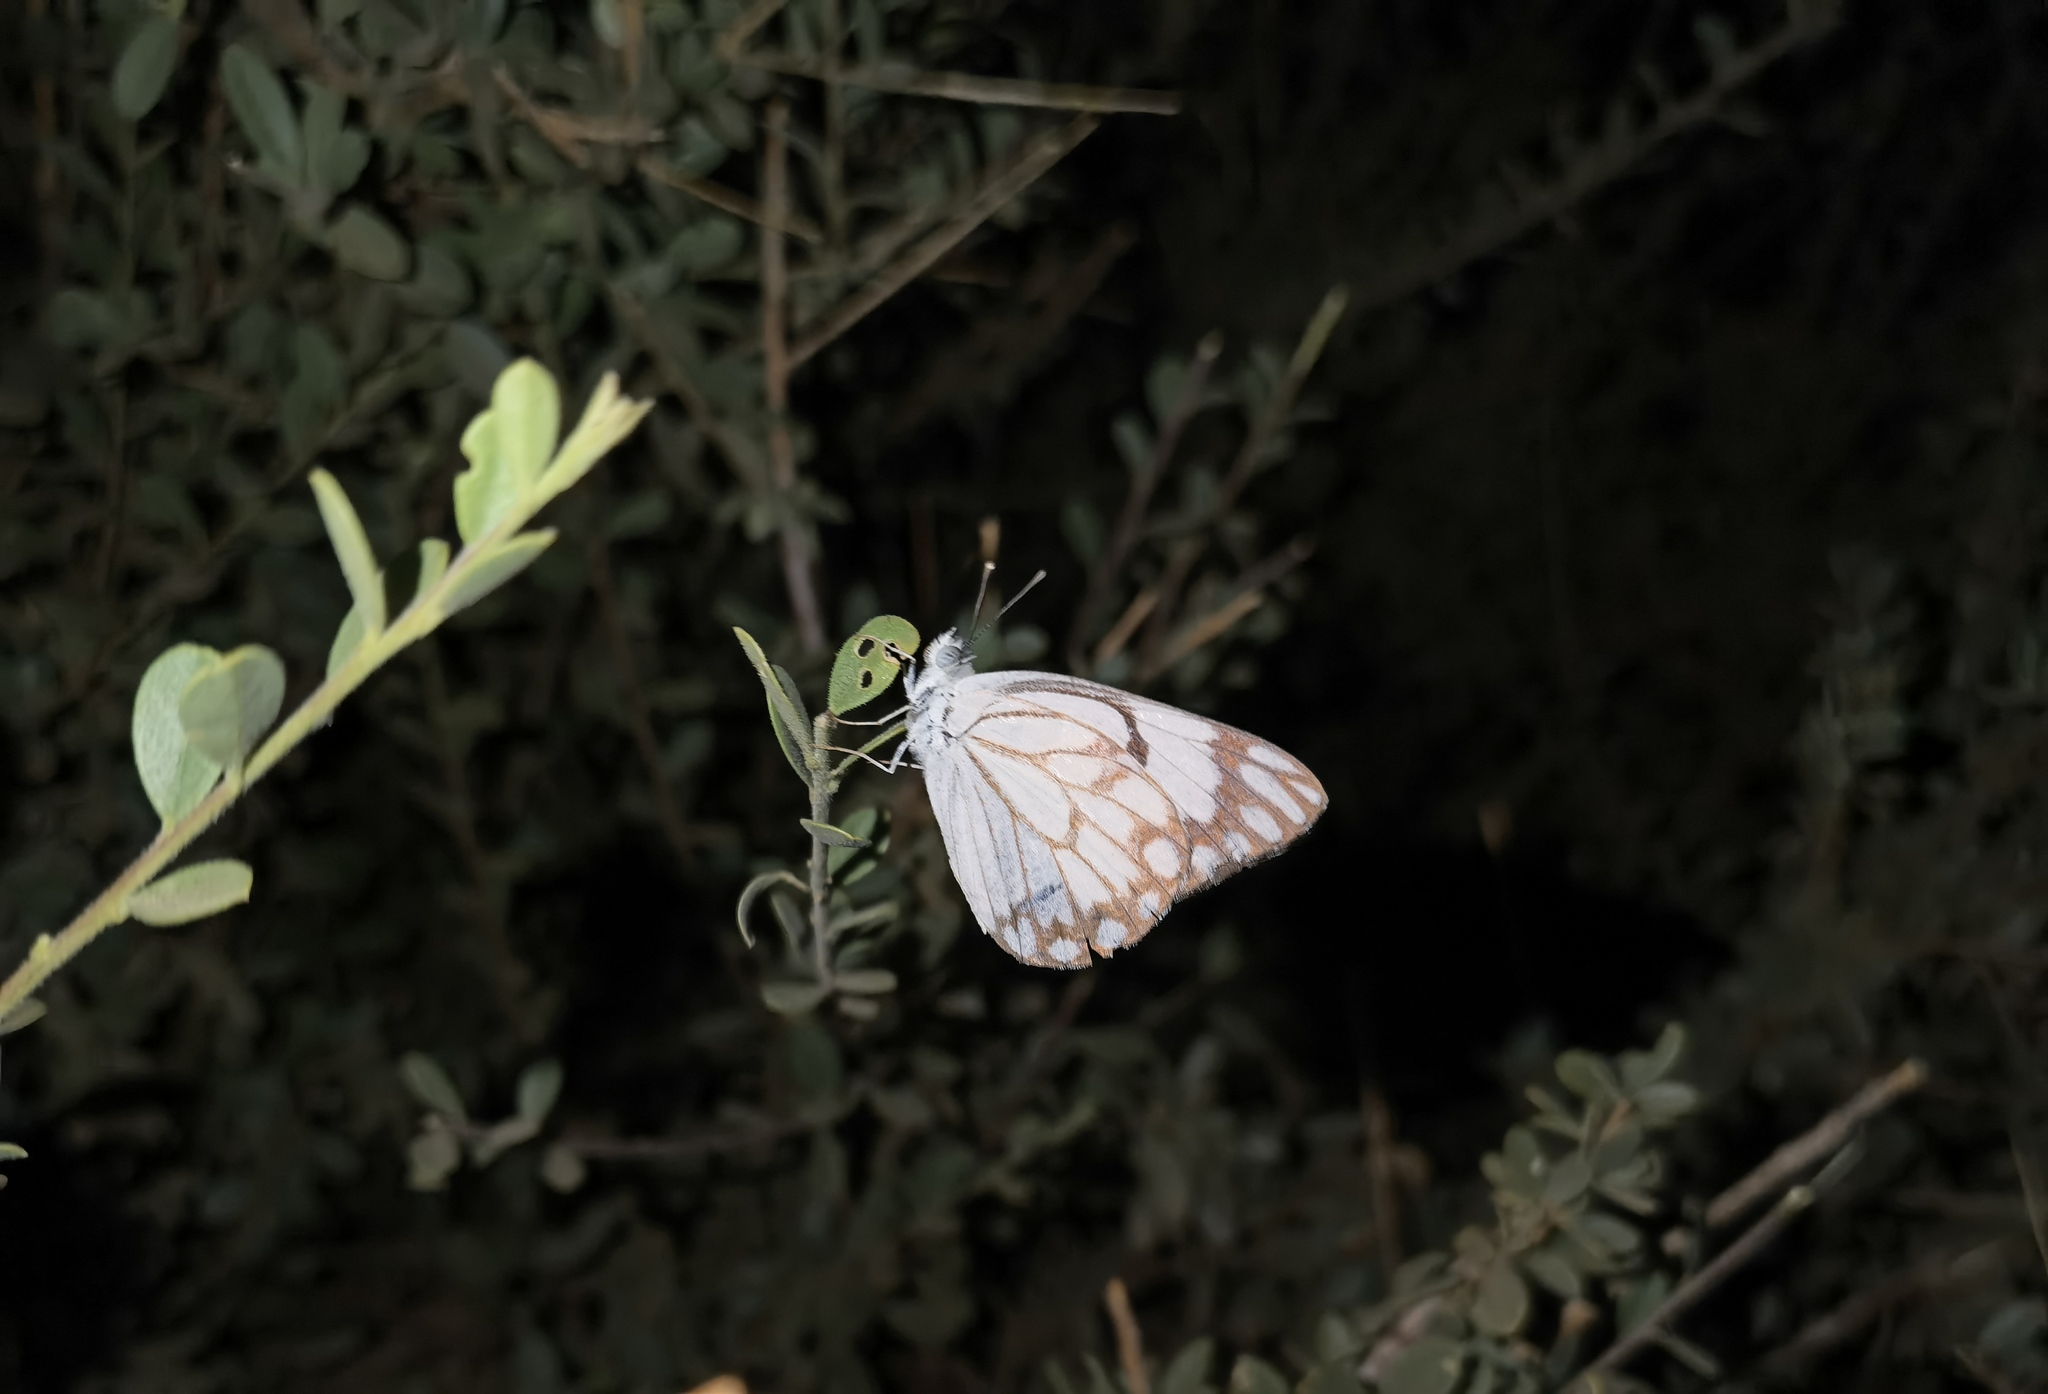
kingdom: Animalia
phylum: Arthropoda
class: Insecta
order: Lepidoptera
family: Pieridae
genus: Belenois
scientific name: Belenois aurota
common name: Brown-veined white
